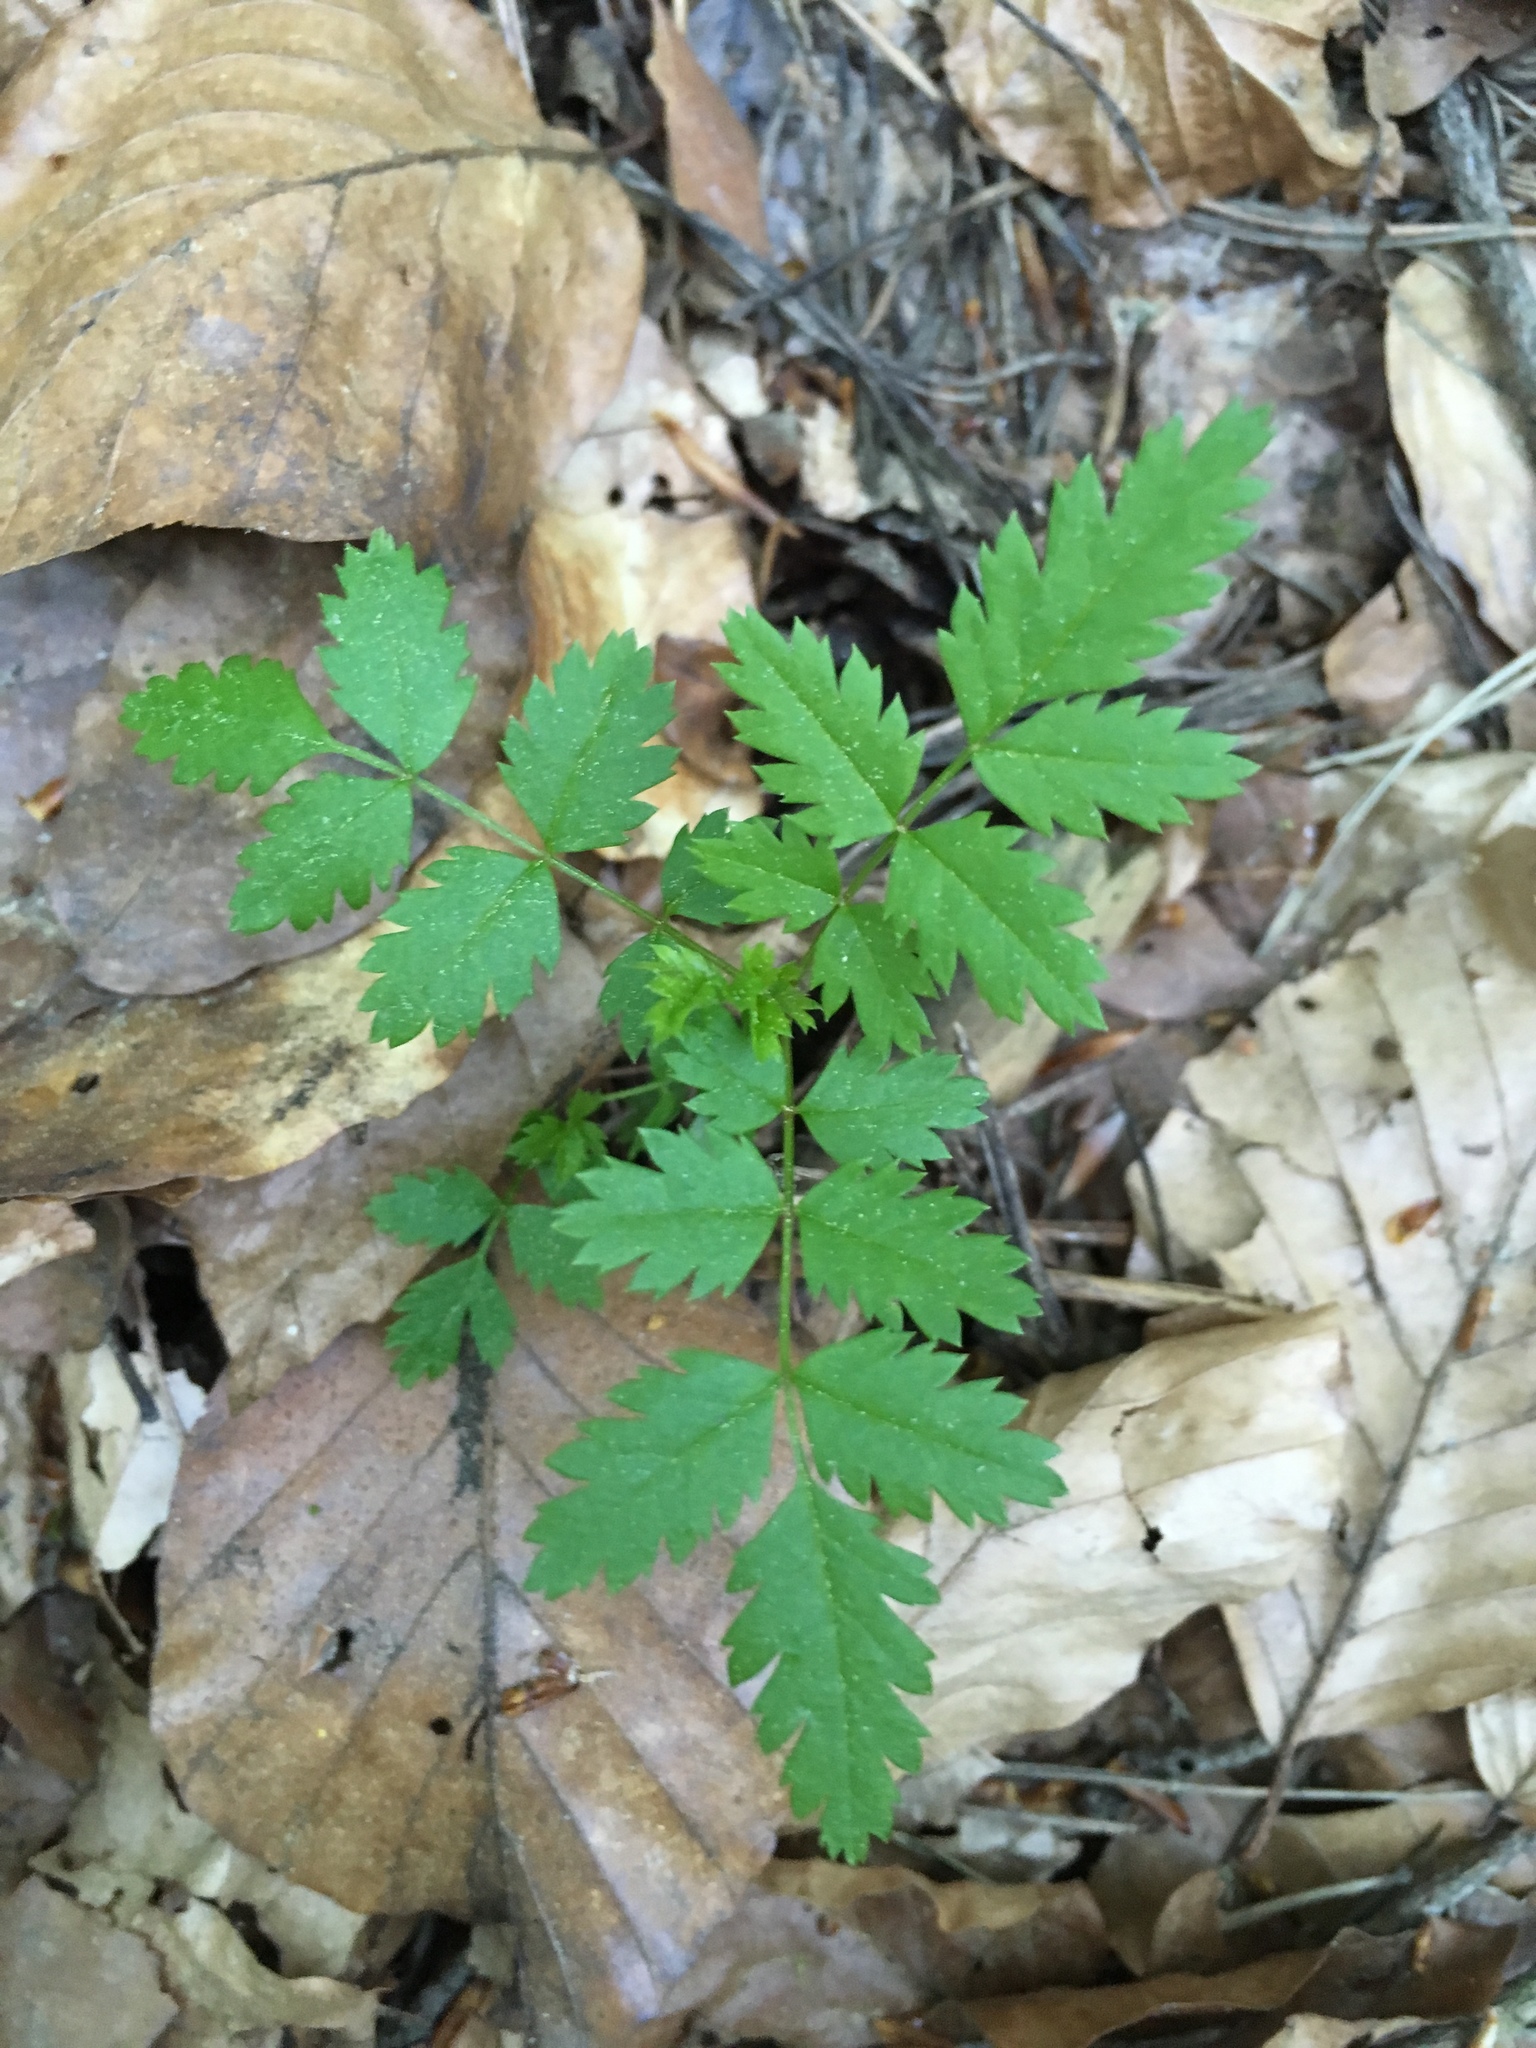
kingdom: Plantae
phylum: Tracheophyta
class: Magnoliopsida
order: Rosales
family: Rosaceae
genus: Sorbus
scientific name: Sorbus aucuparia
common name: Rowan
